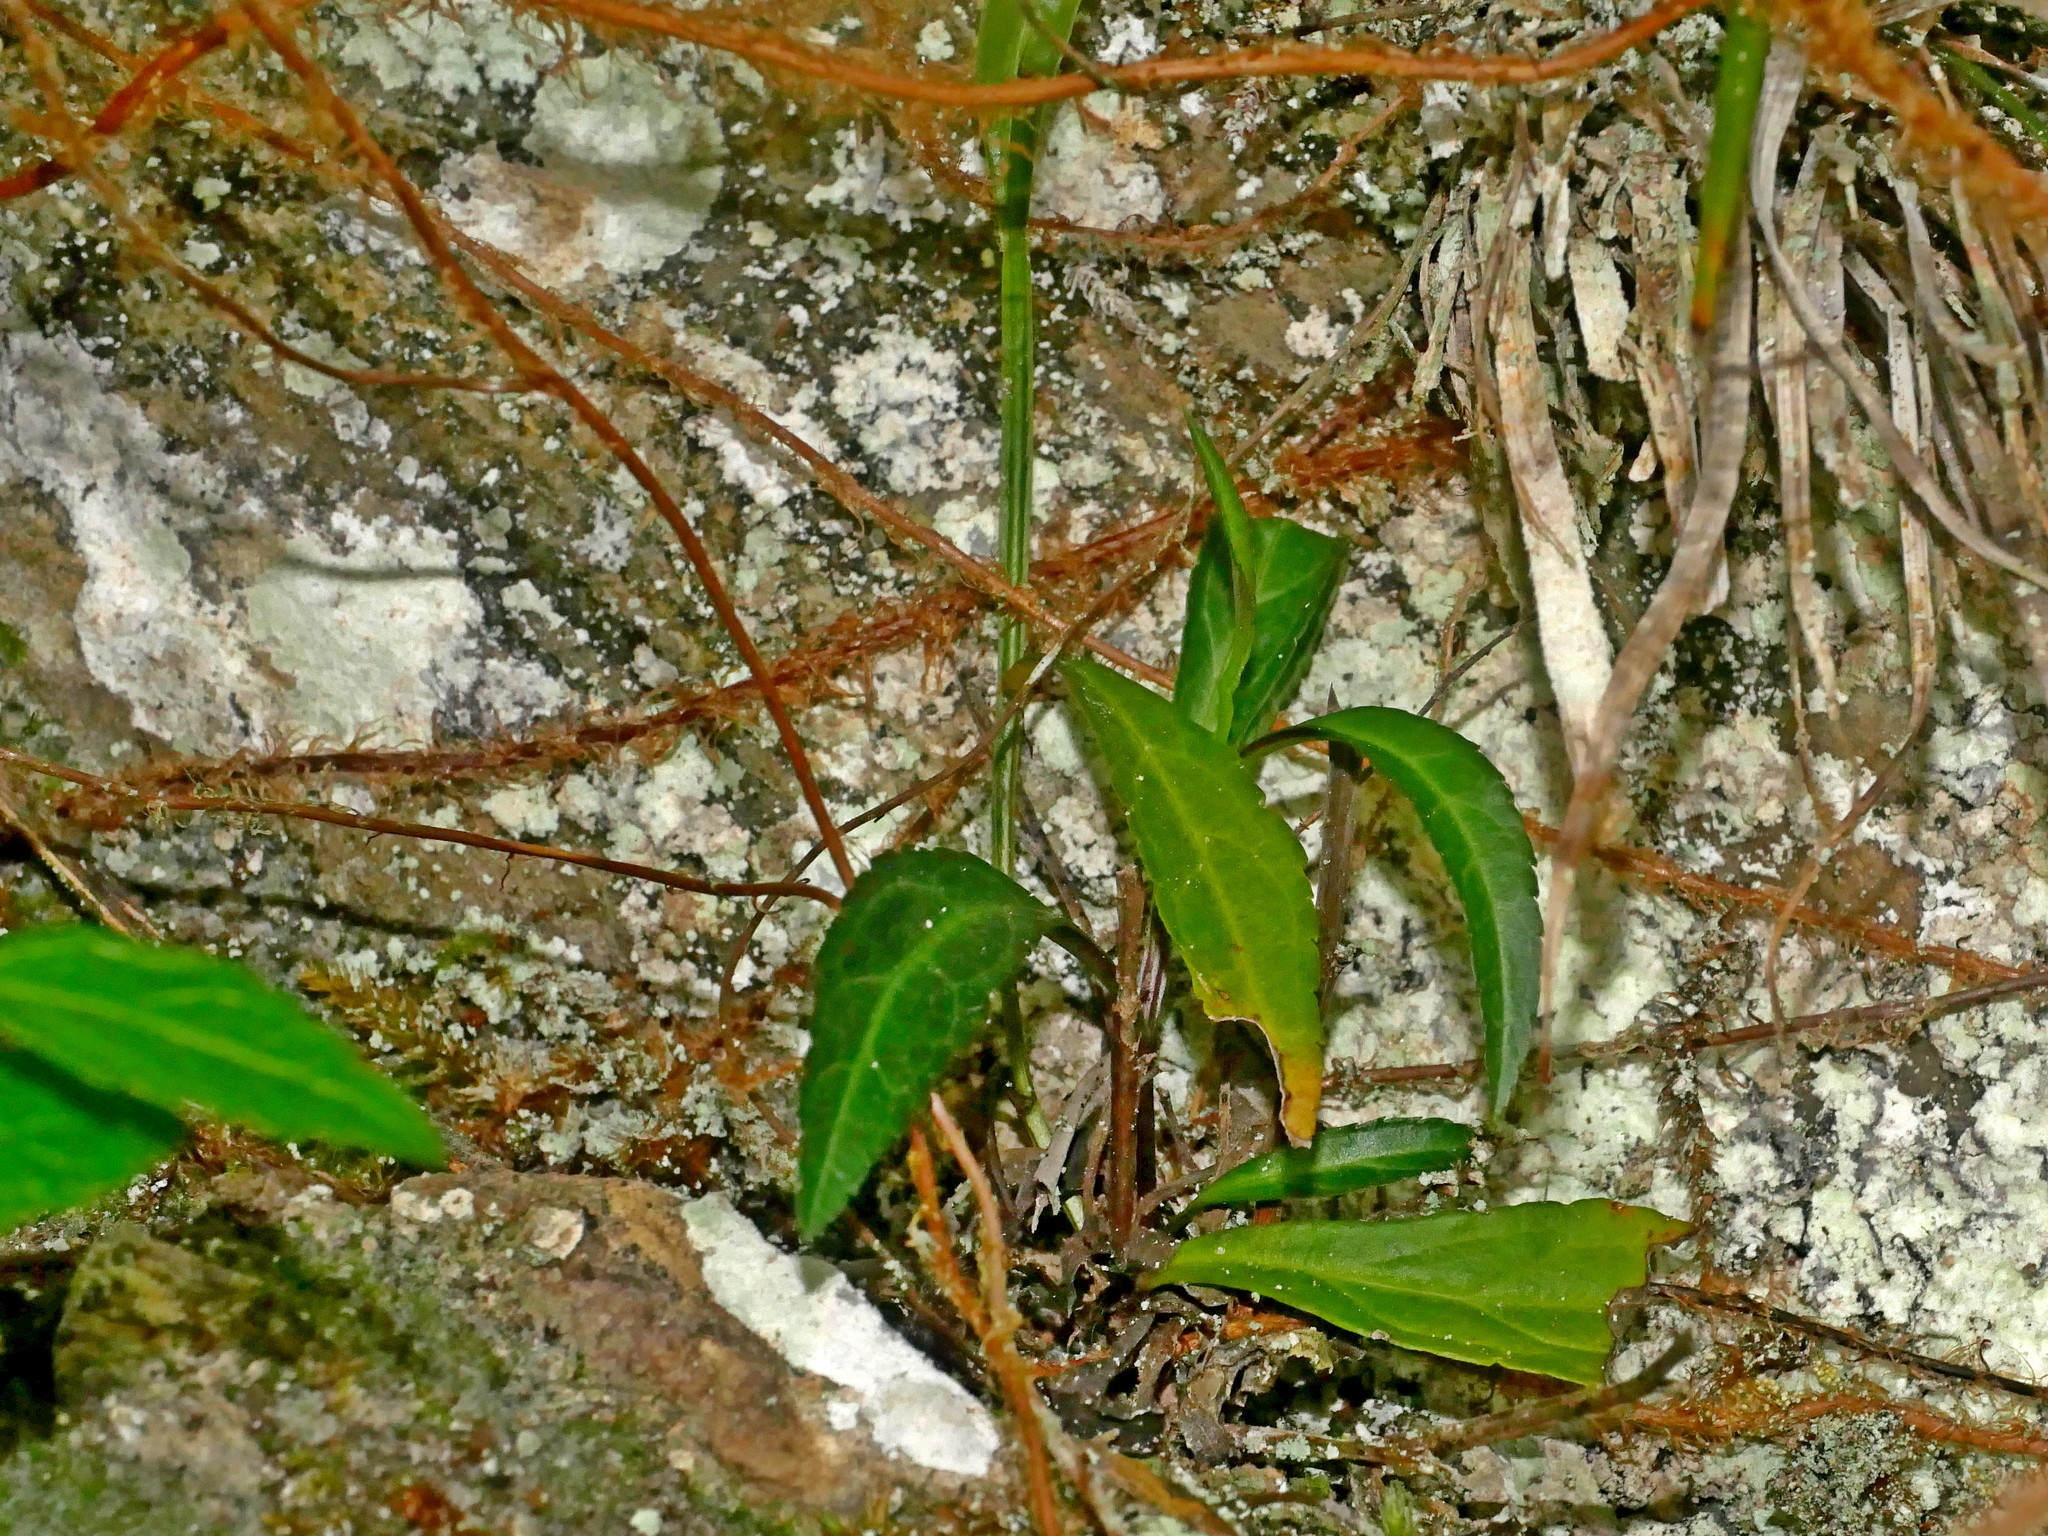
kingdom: Plantae
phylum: Tracheophyta
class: Magnoliopsida
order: Lamiales
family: Plantaginaceae
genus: Veronicastrum
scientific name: Veronicastrum formosanum
